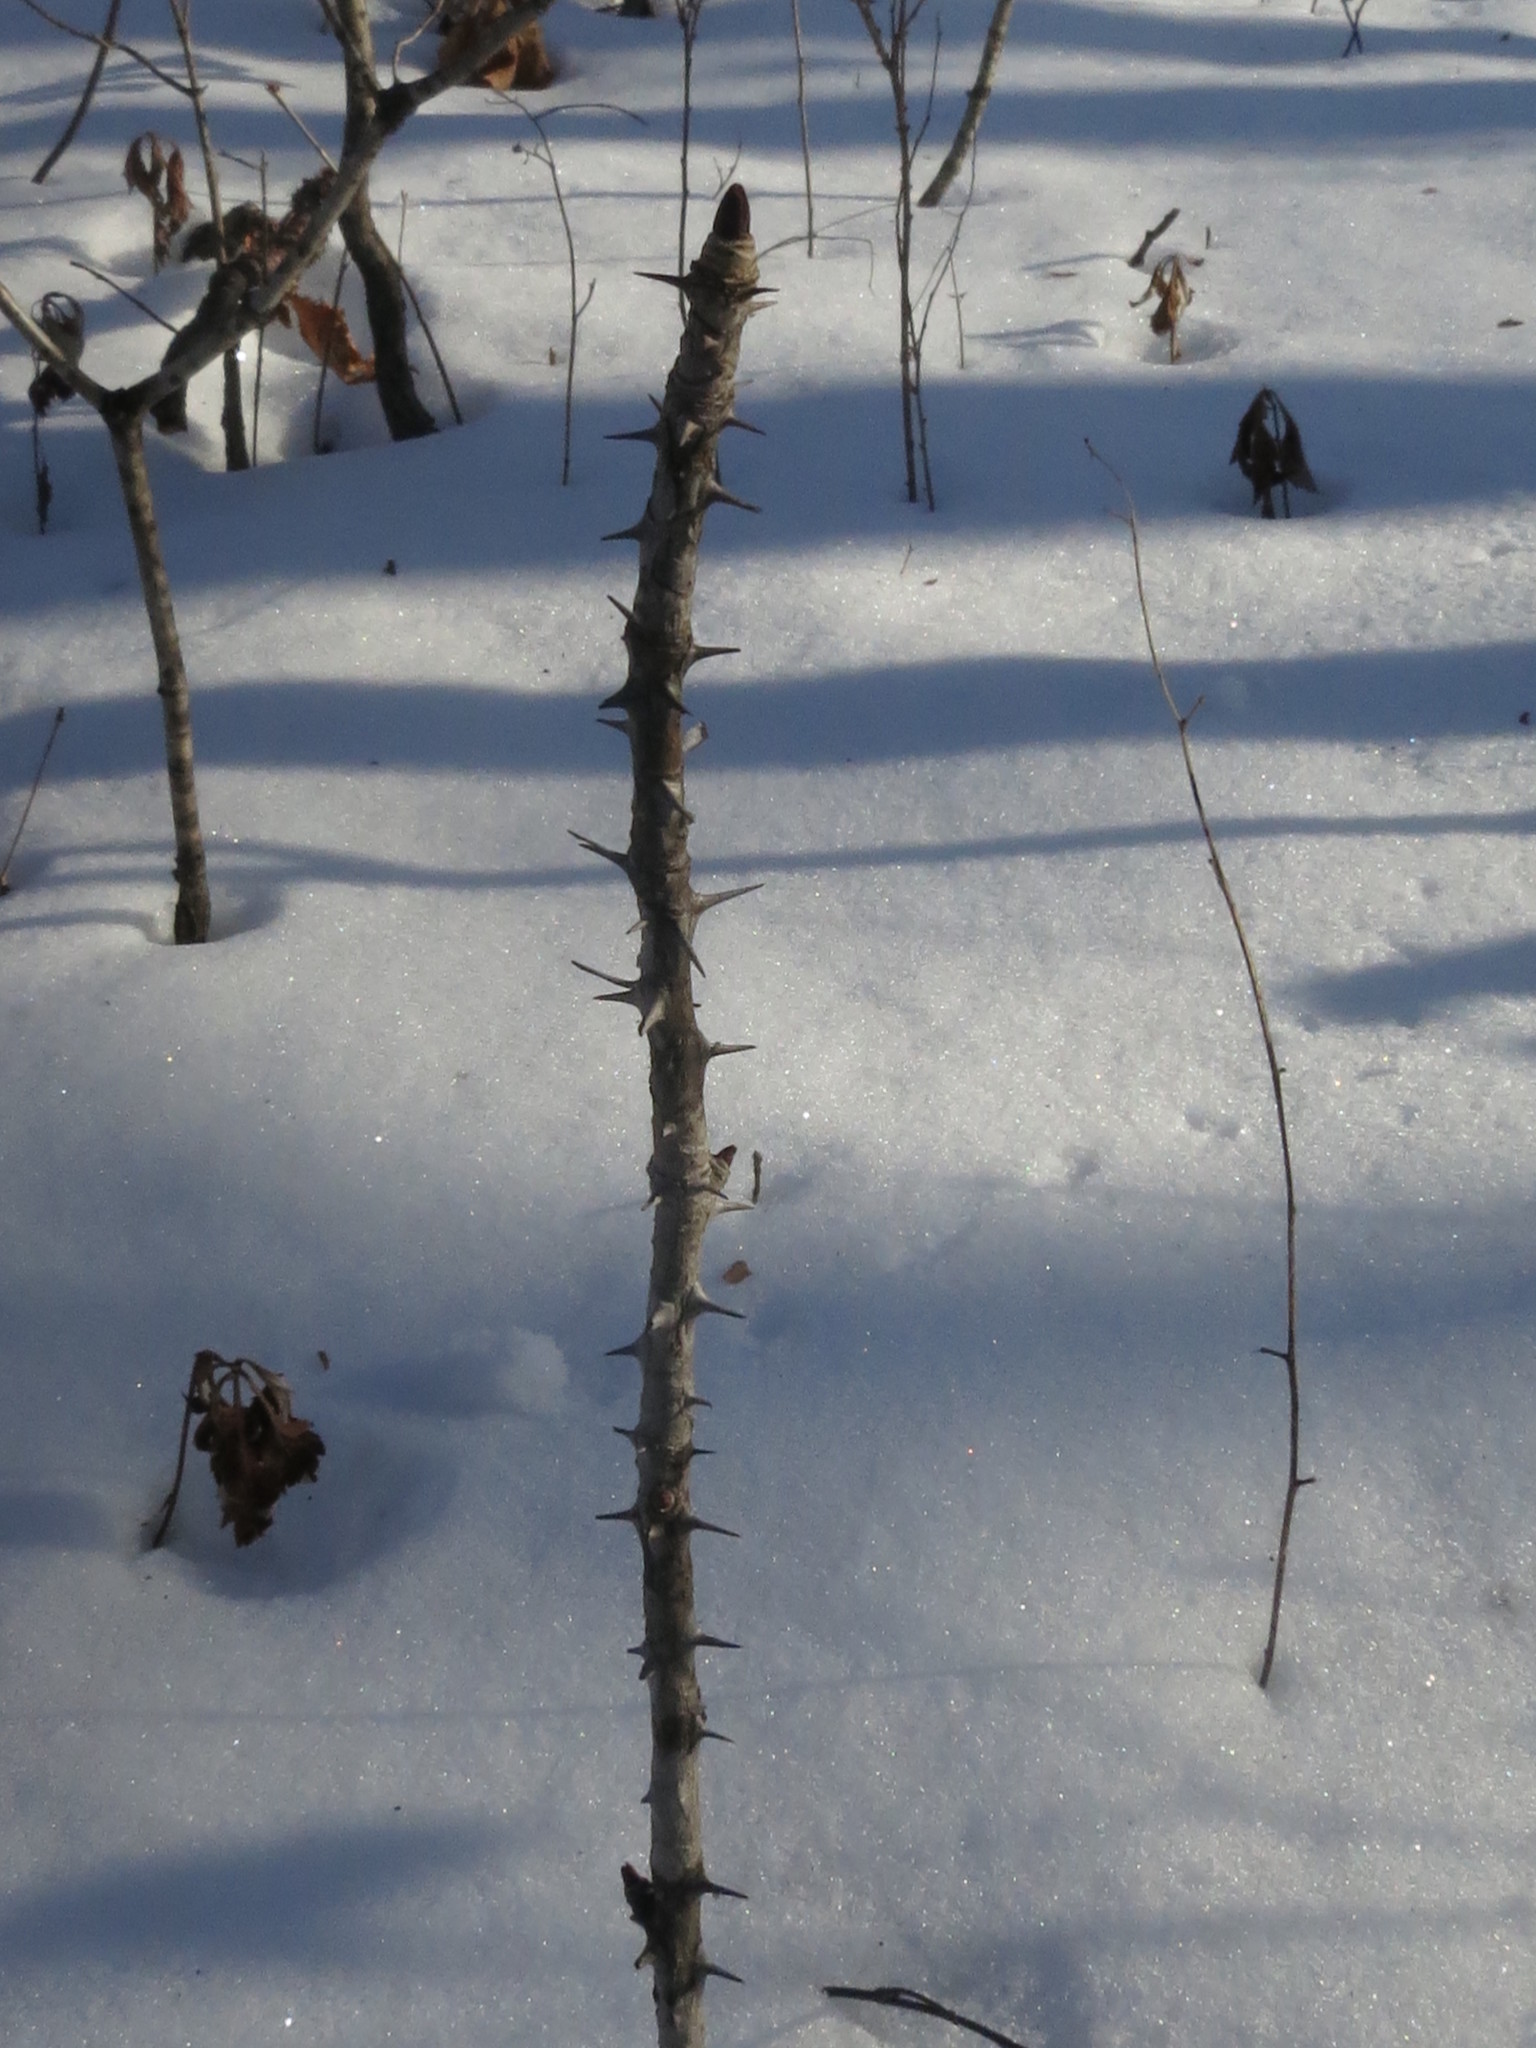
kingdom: Plantae
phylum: Tracheophyta
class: Magnoliopsida
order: Apiales
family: Araliaceae
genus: Kalopanax
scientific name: Kalopanax septemlobus
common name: Castor aralia
